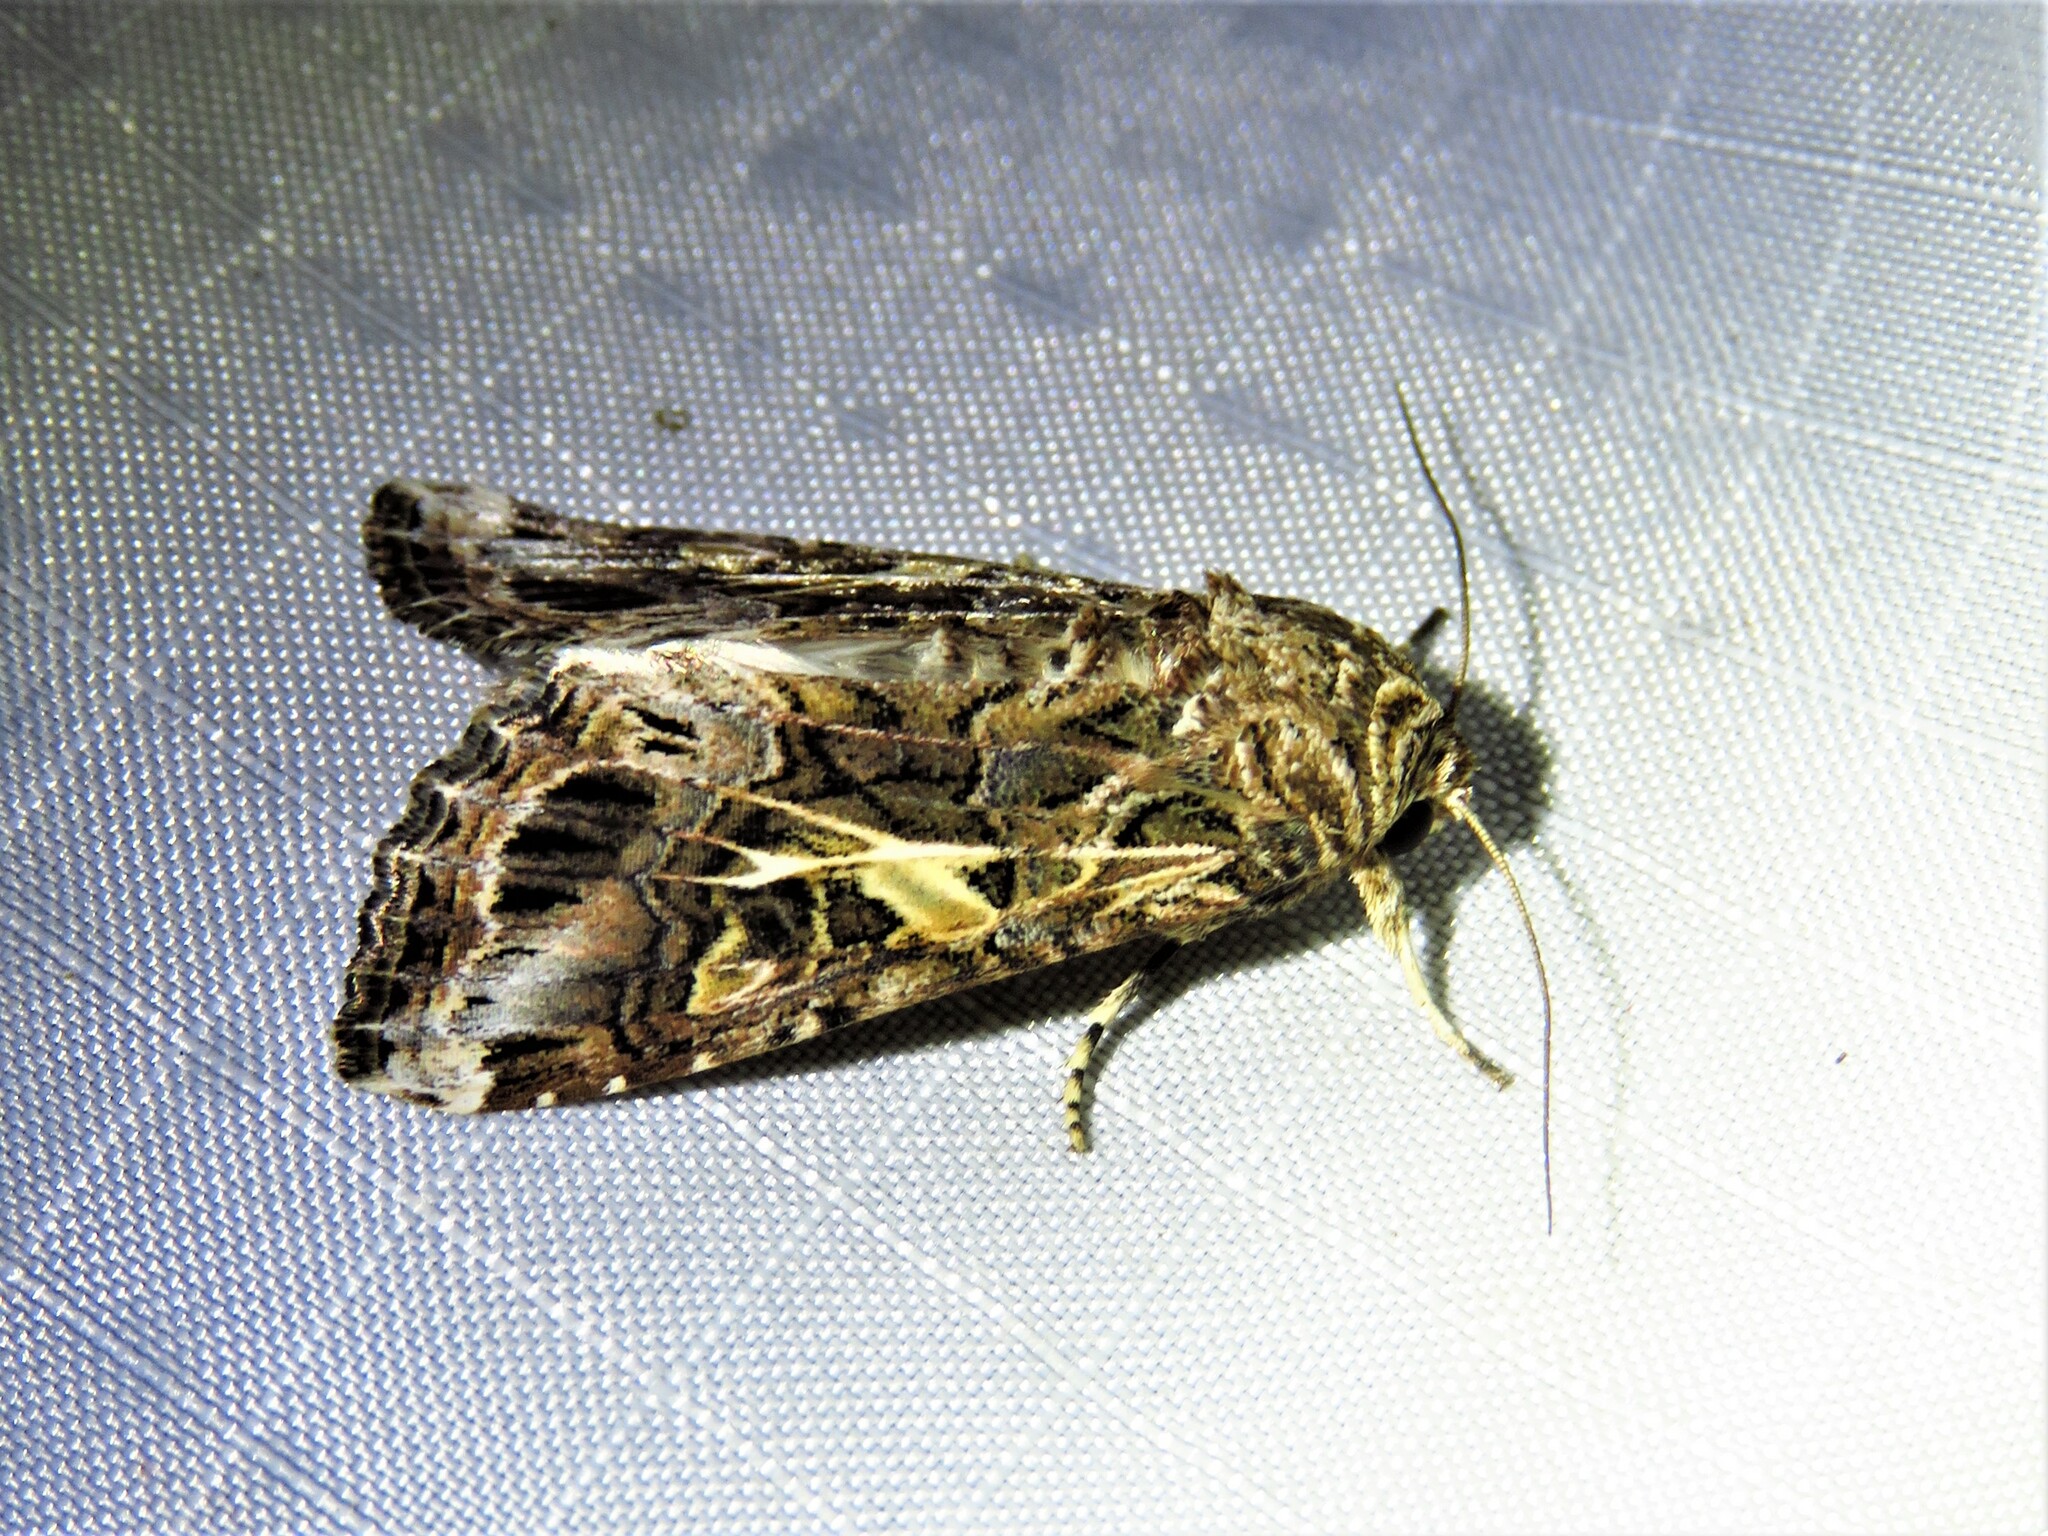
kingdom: Animalia
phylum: Arthropoda
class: Insecta
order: Lepidoptera
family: Noctuidae
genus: Spodoptera
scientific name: Spodoptera ornithogalli
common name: Yellow-striped armyworm
